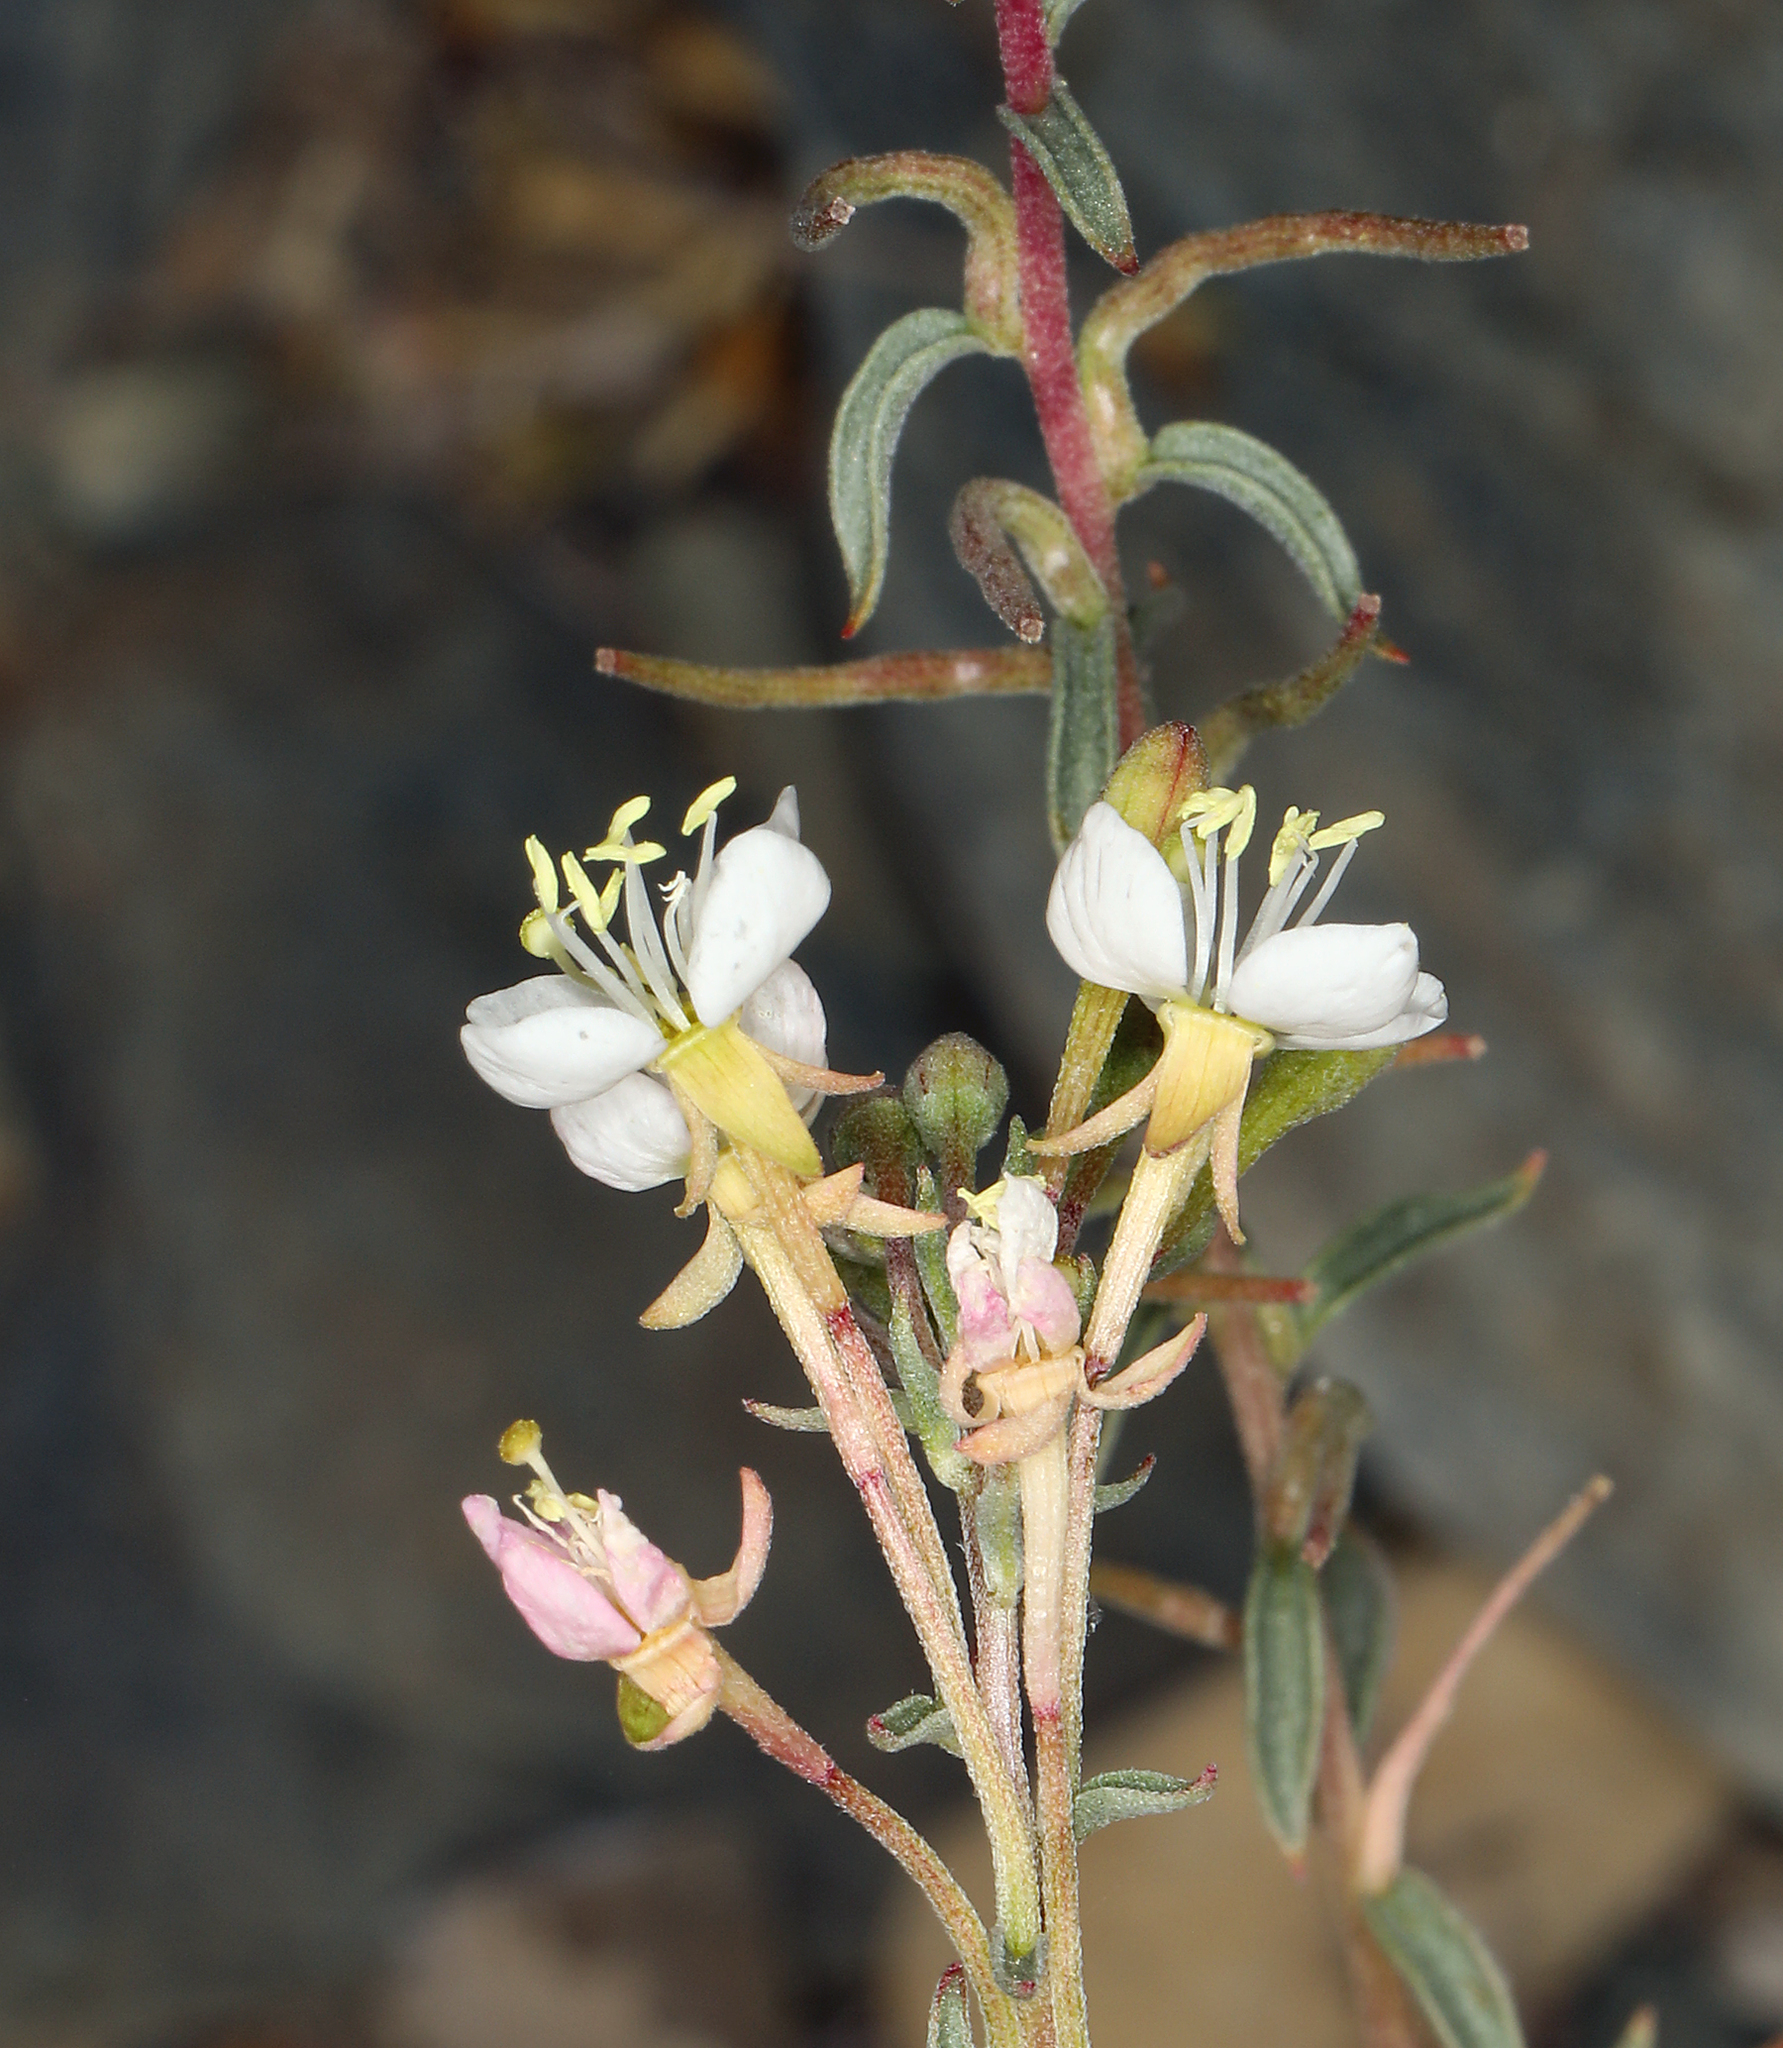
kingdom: Plantae
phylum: Tracheophyta
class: Magnoliopsida
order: Myrtales
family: Onagraceae
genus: Eremothera
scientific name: Eremothera boothii
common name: Booth's evening primrose
